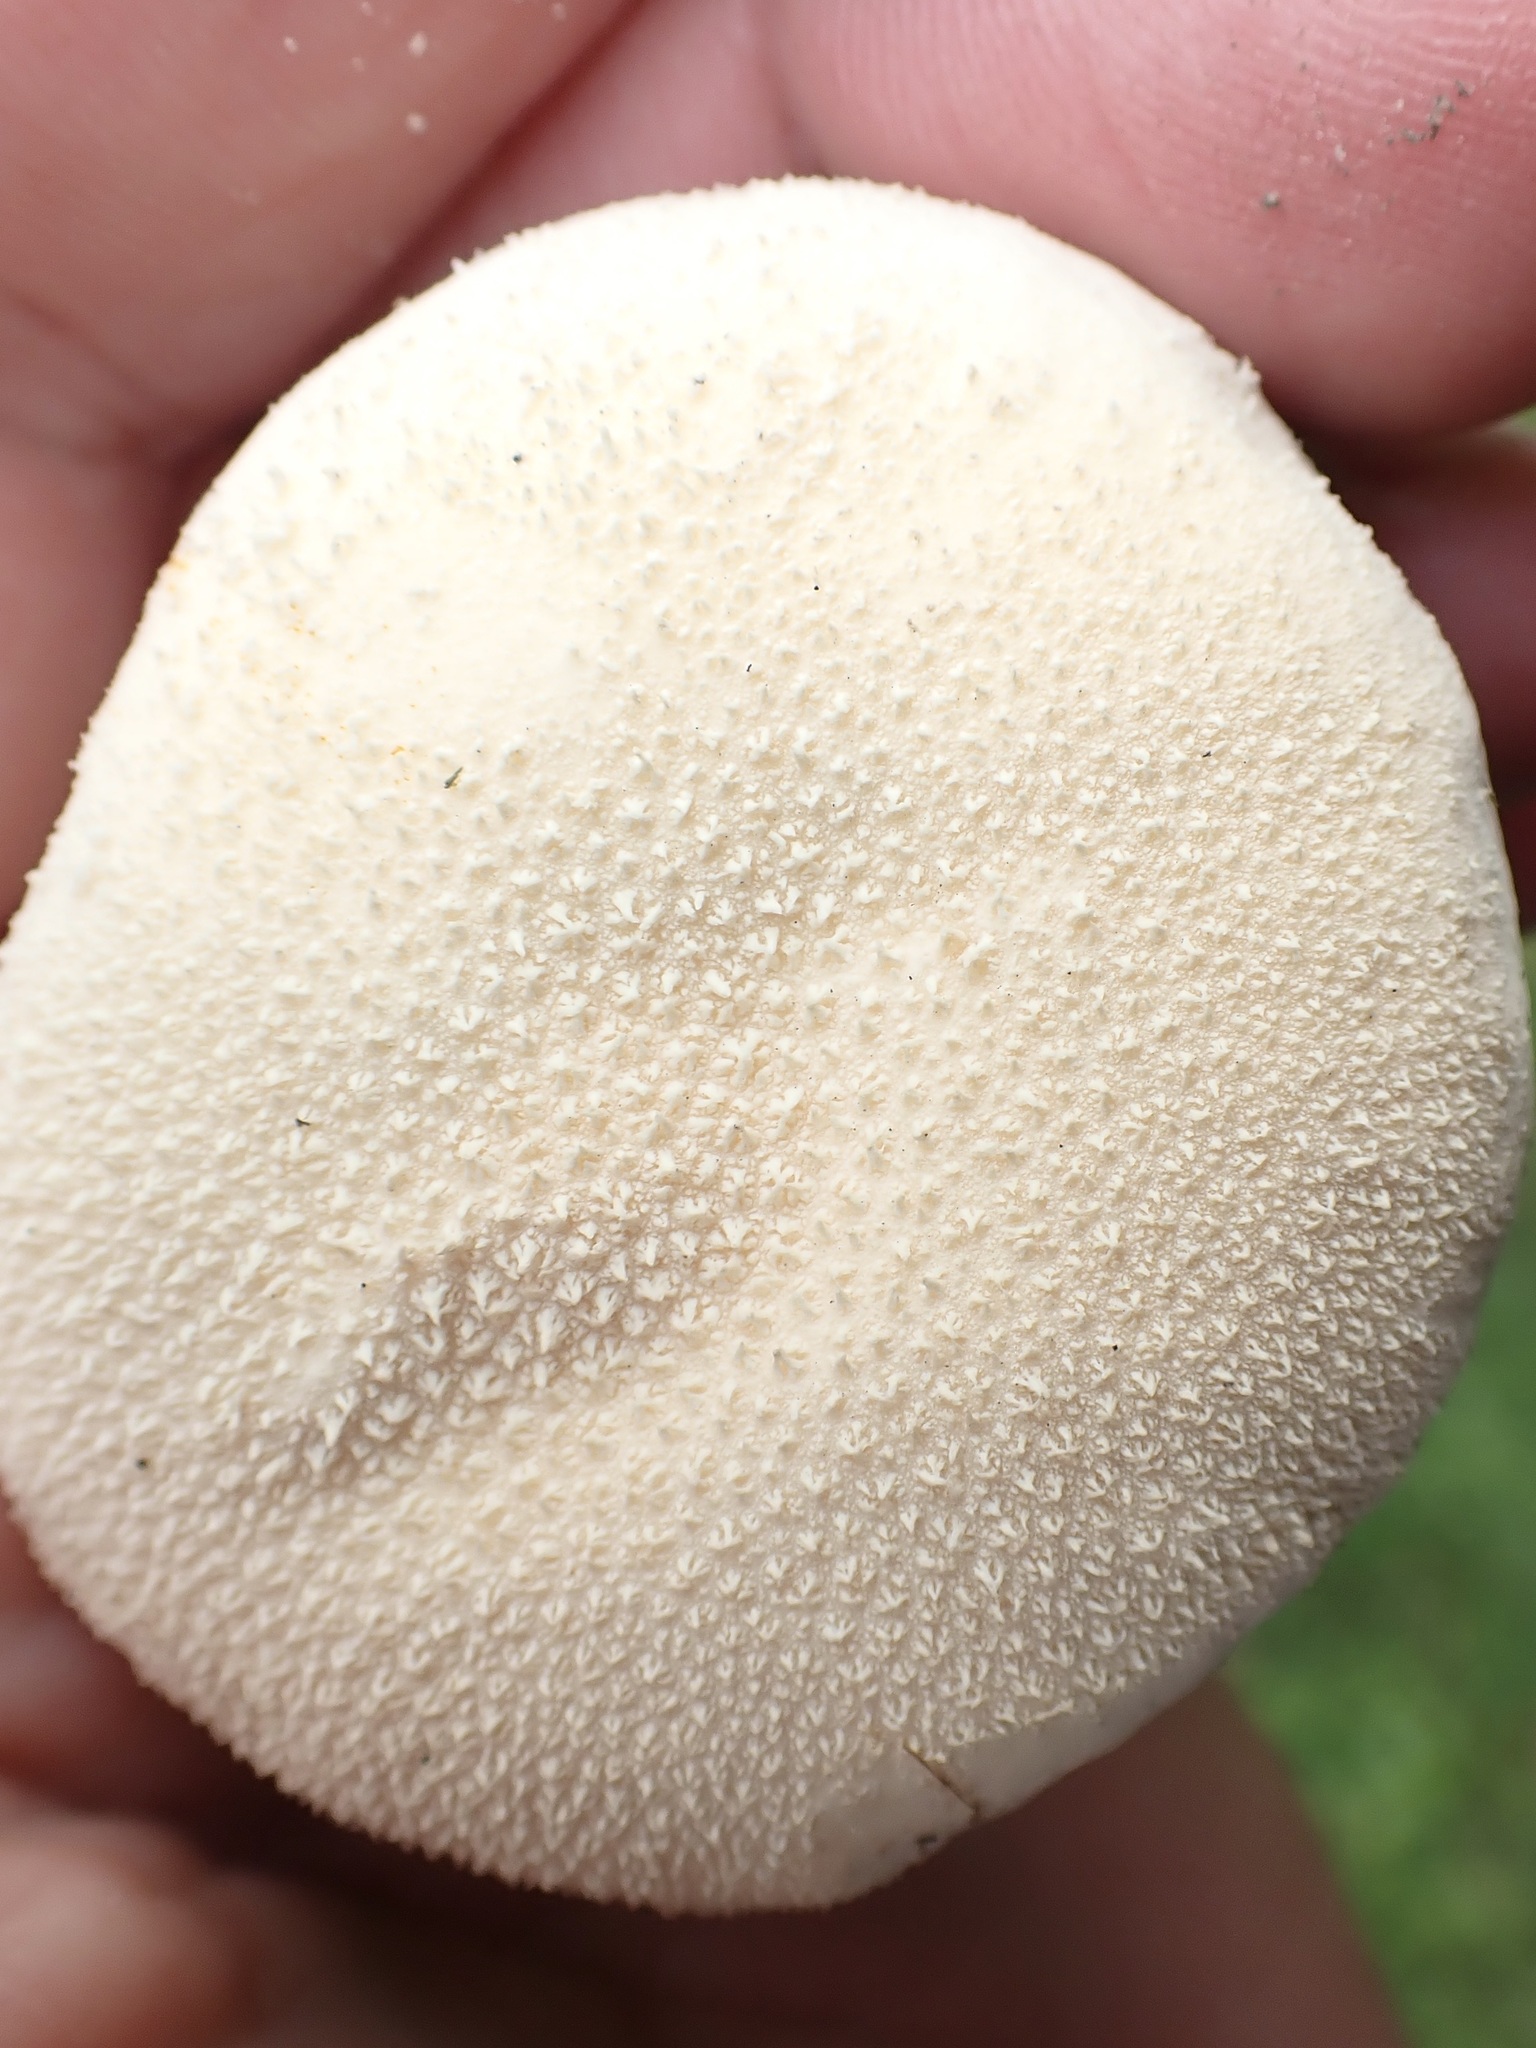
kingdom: Fungi
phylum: Basidiomycota
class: Agaricomycetes
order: Agaricales
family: Lycoperdaceae
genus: Lycoperdon
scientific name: Lycoperdon pratense
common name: Meadow puffball
